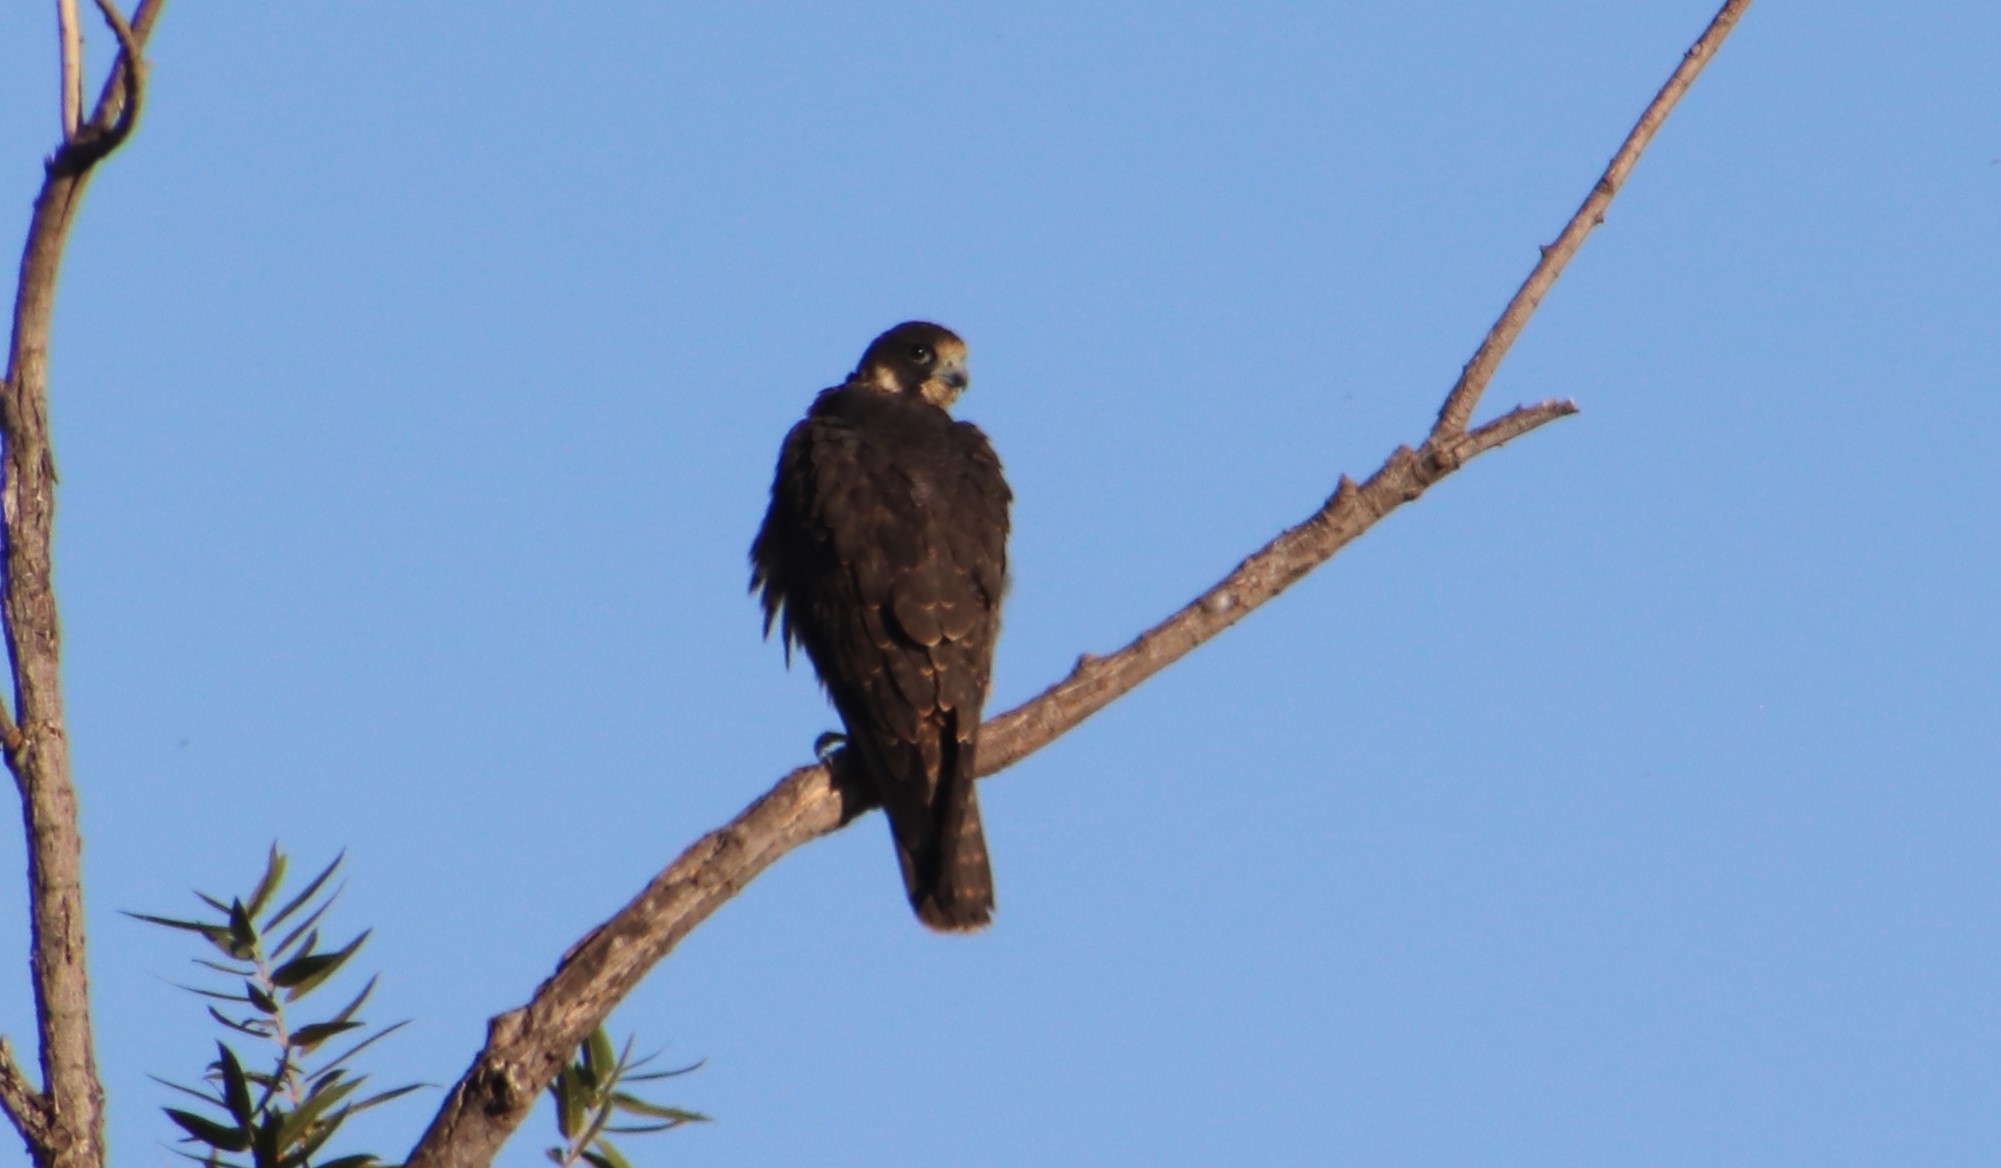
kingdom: Animalia
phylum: Chordata
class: Aves
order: Falconiformes
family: Falconidae
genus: Falco
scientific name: Falco peregrinus
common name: Peregrine falcon
